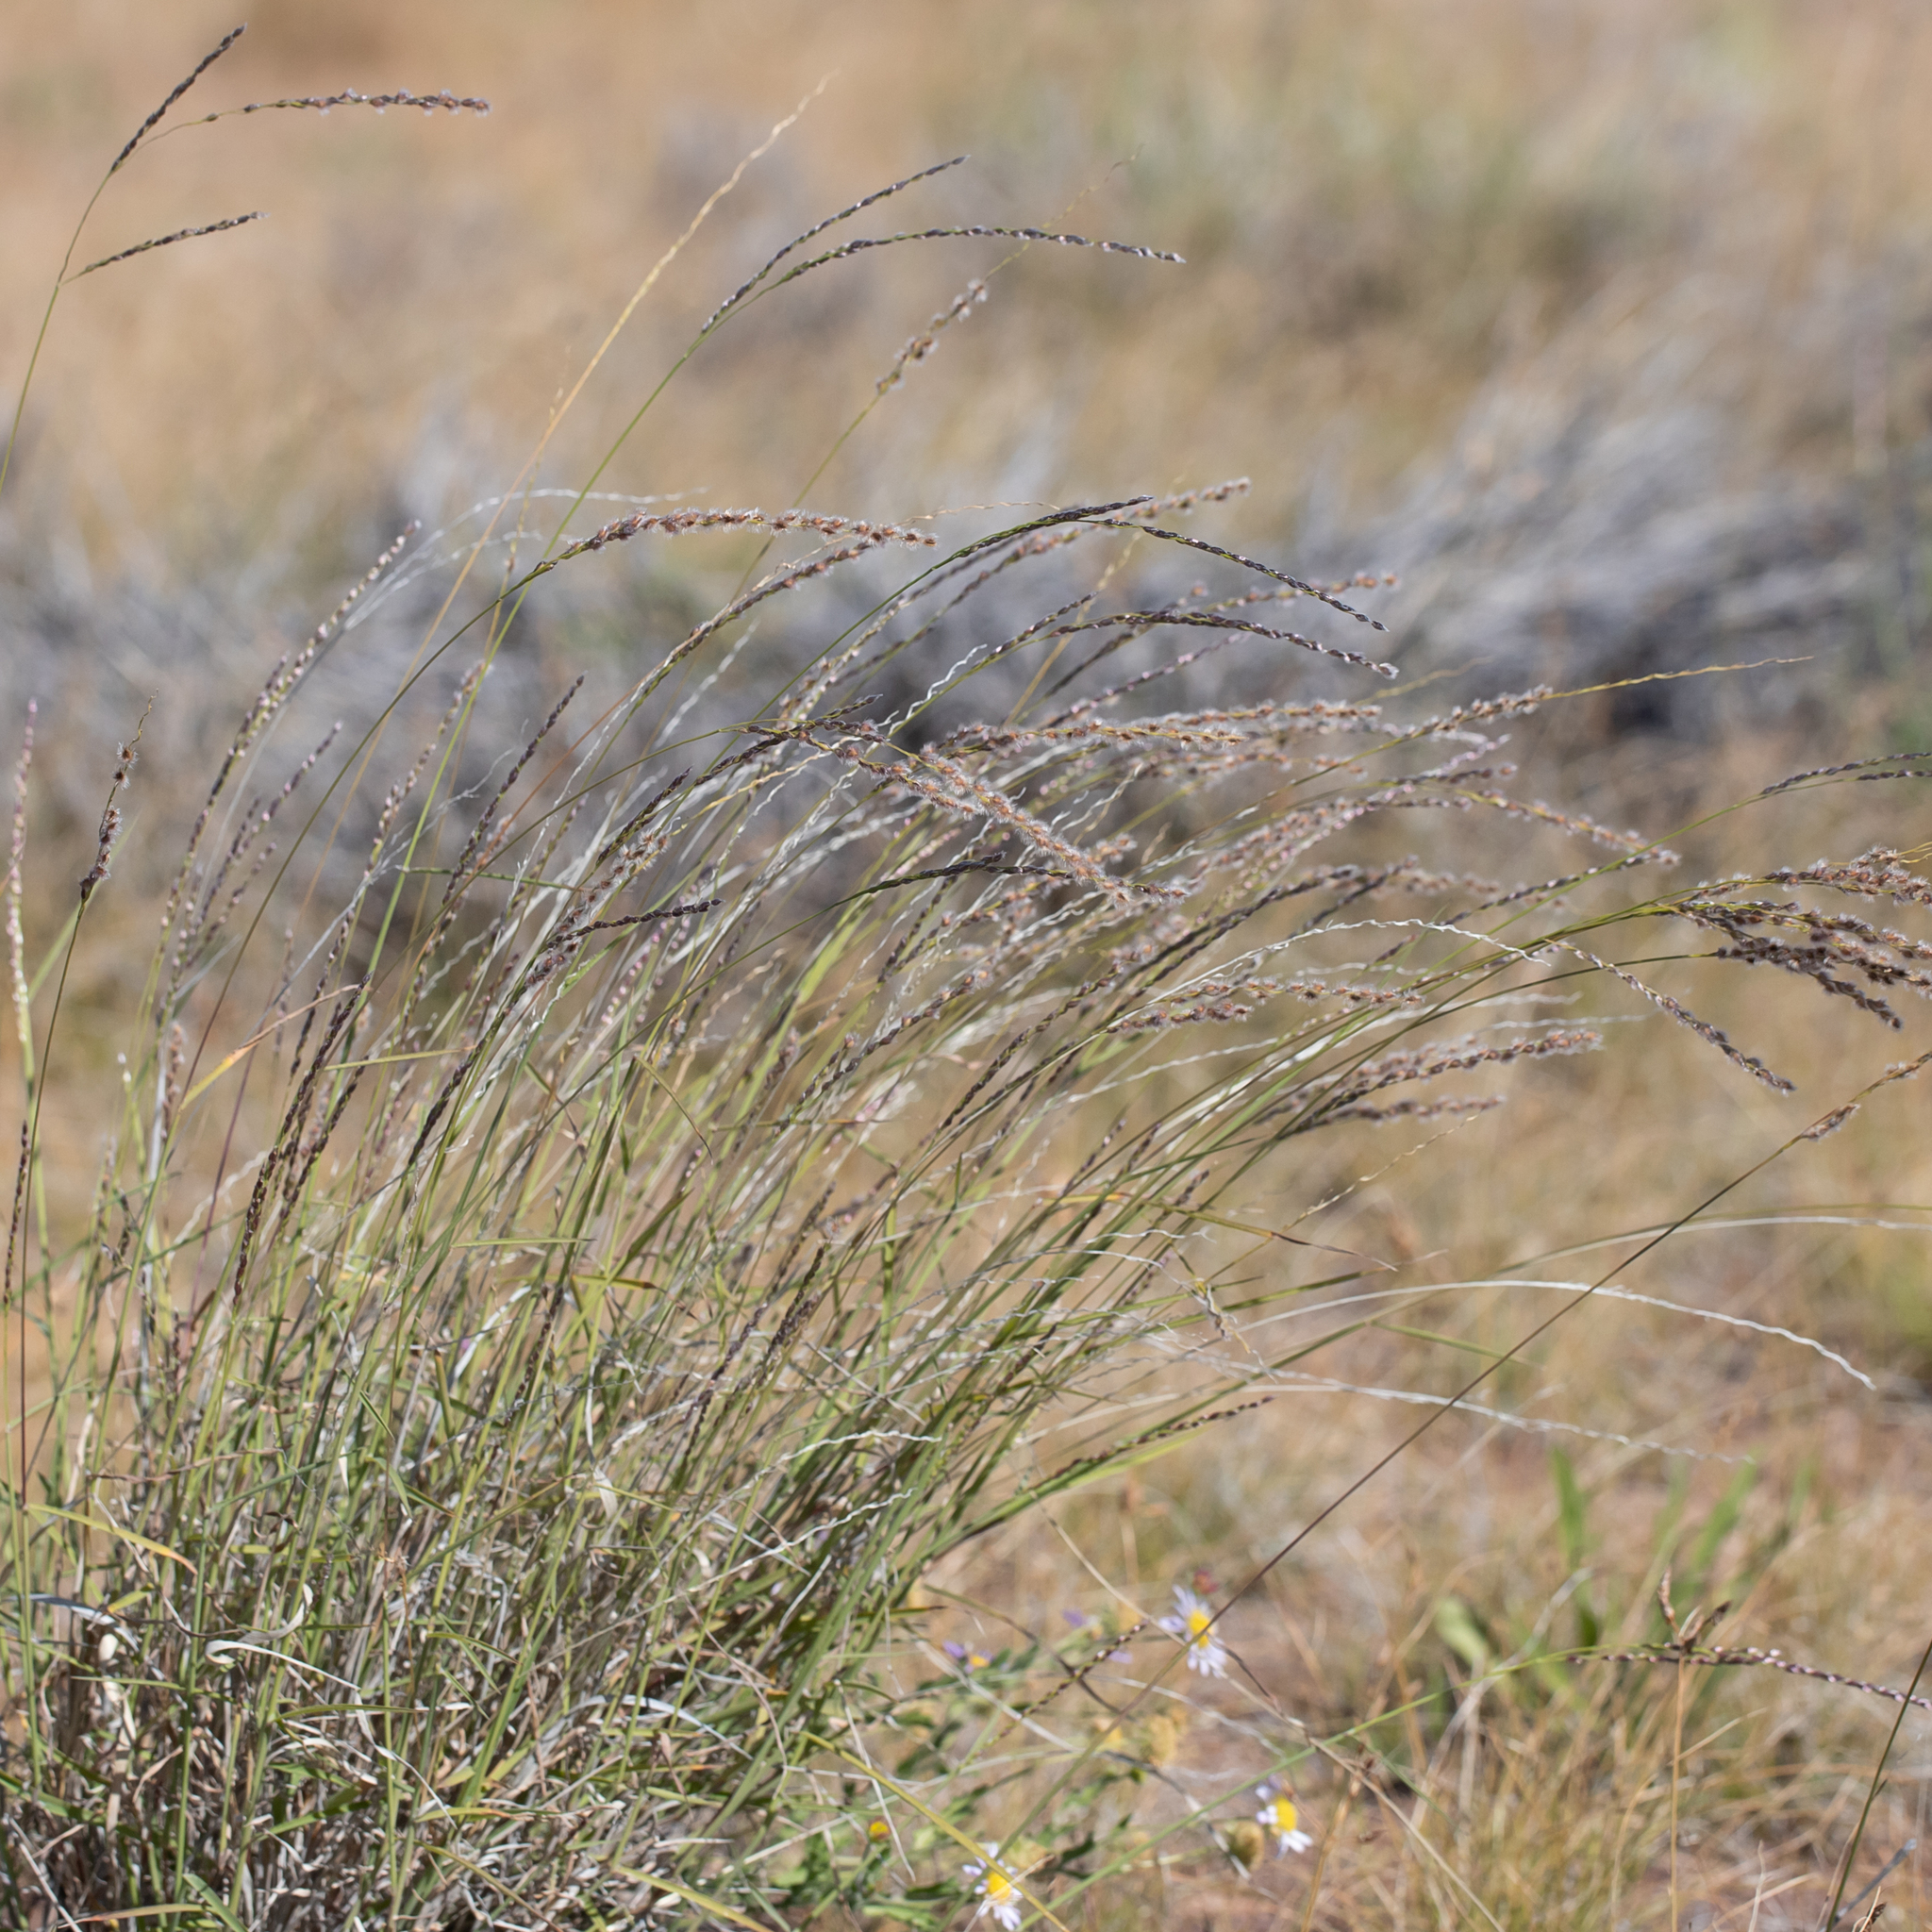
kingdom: Plantae
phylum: Tracheophyta
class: Liliopsida
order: Poales
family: Poaceae
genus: Digitaria
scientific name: Digitaria brownii
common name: Cotton grass
